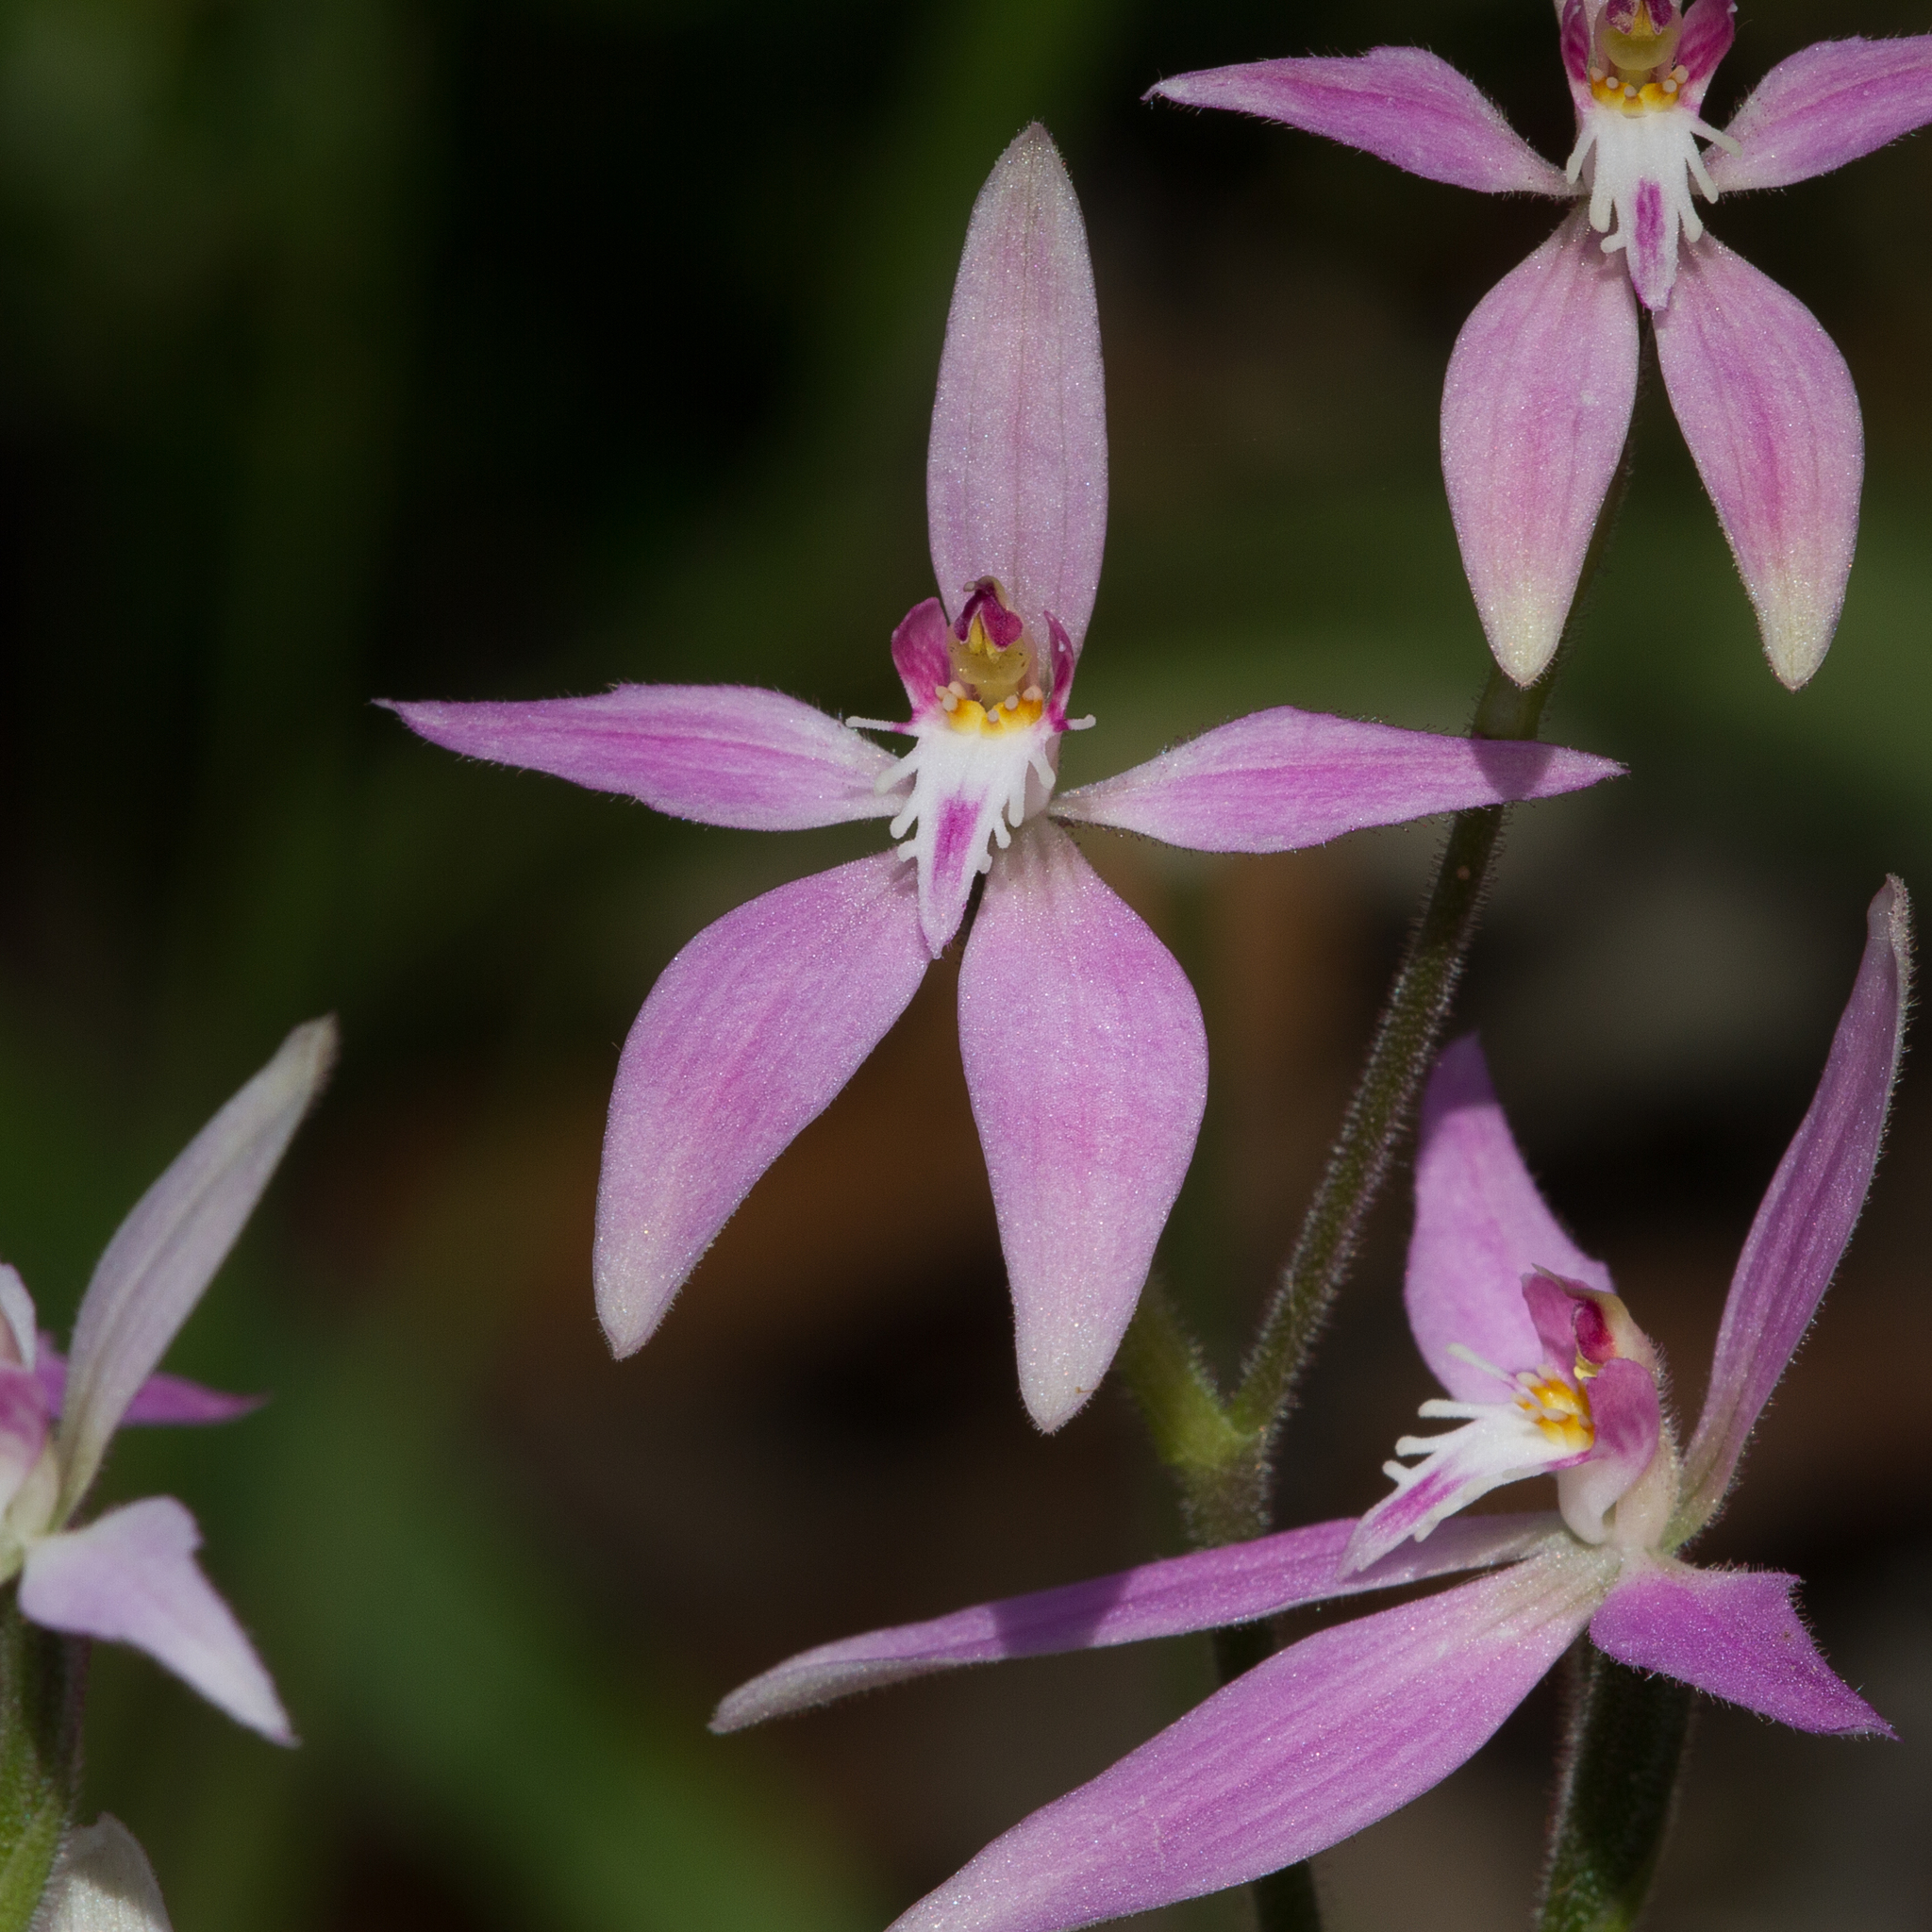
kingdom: Plantae
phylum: Tracheophyta
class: Liliopsida
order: Asparagales
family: Orchidaceae
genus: Caladenia
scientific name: Caladenia latifolia
